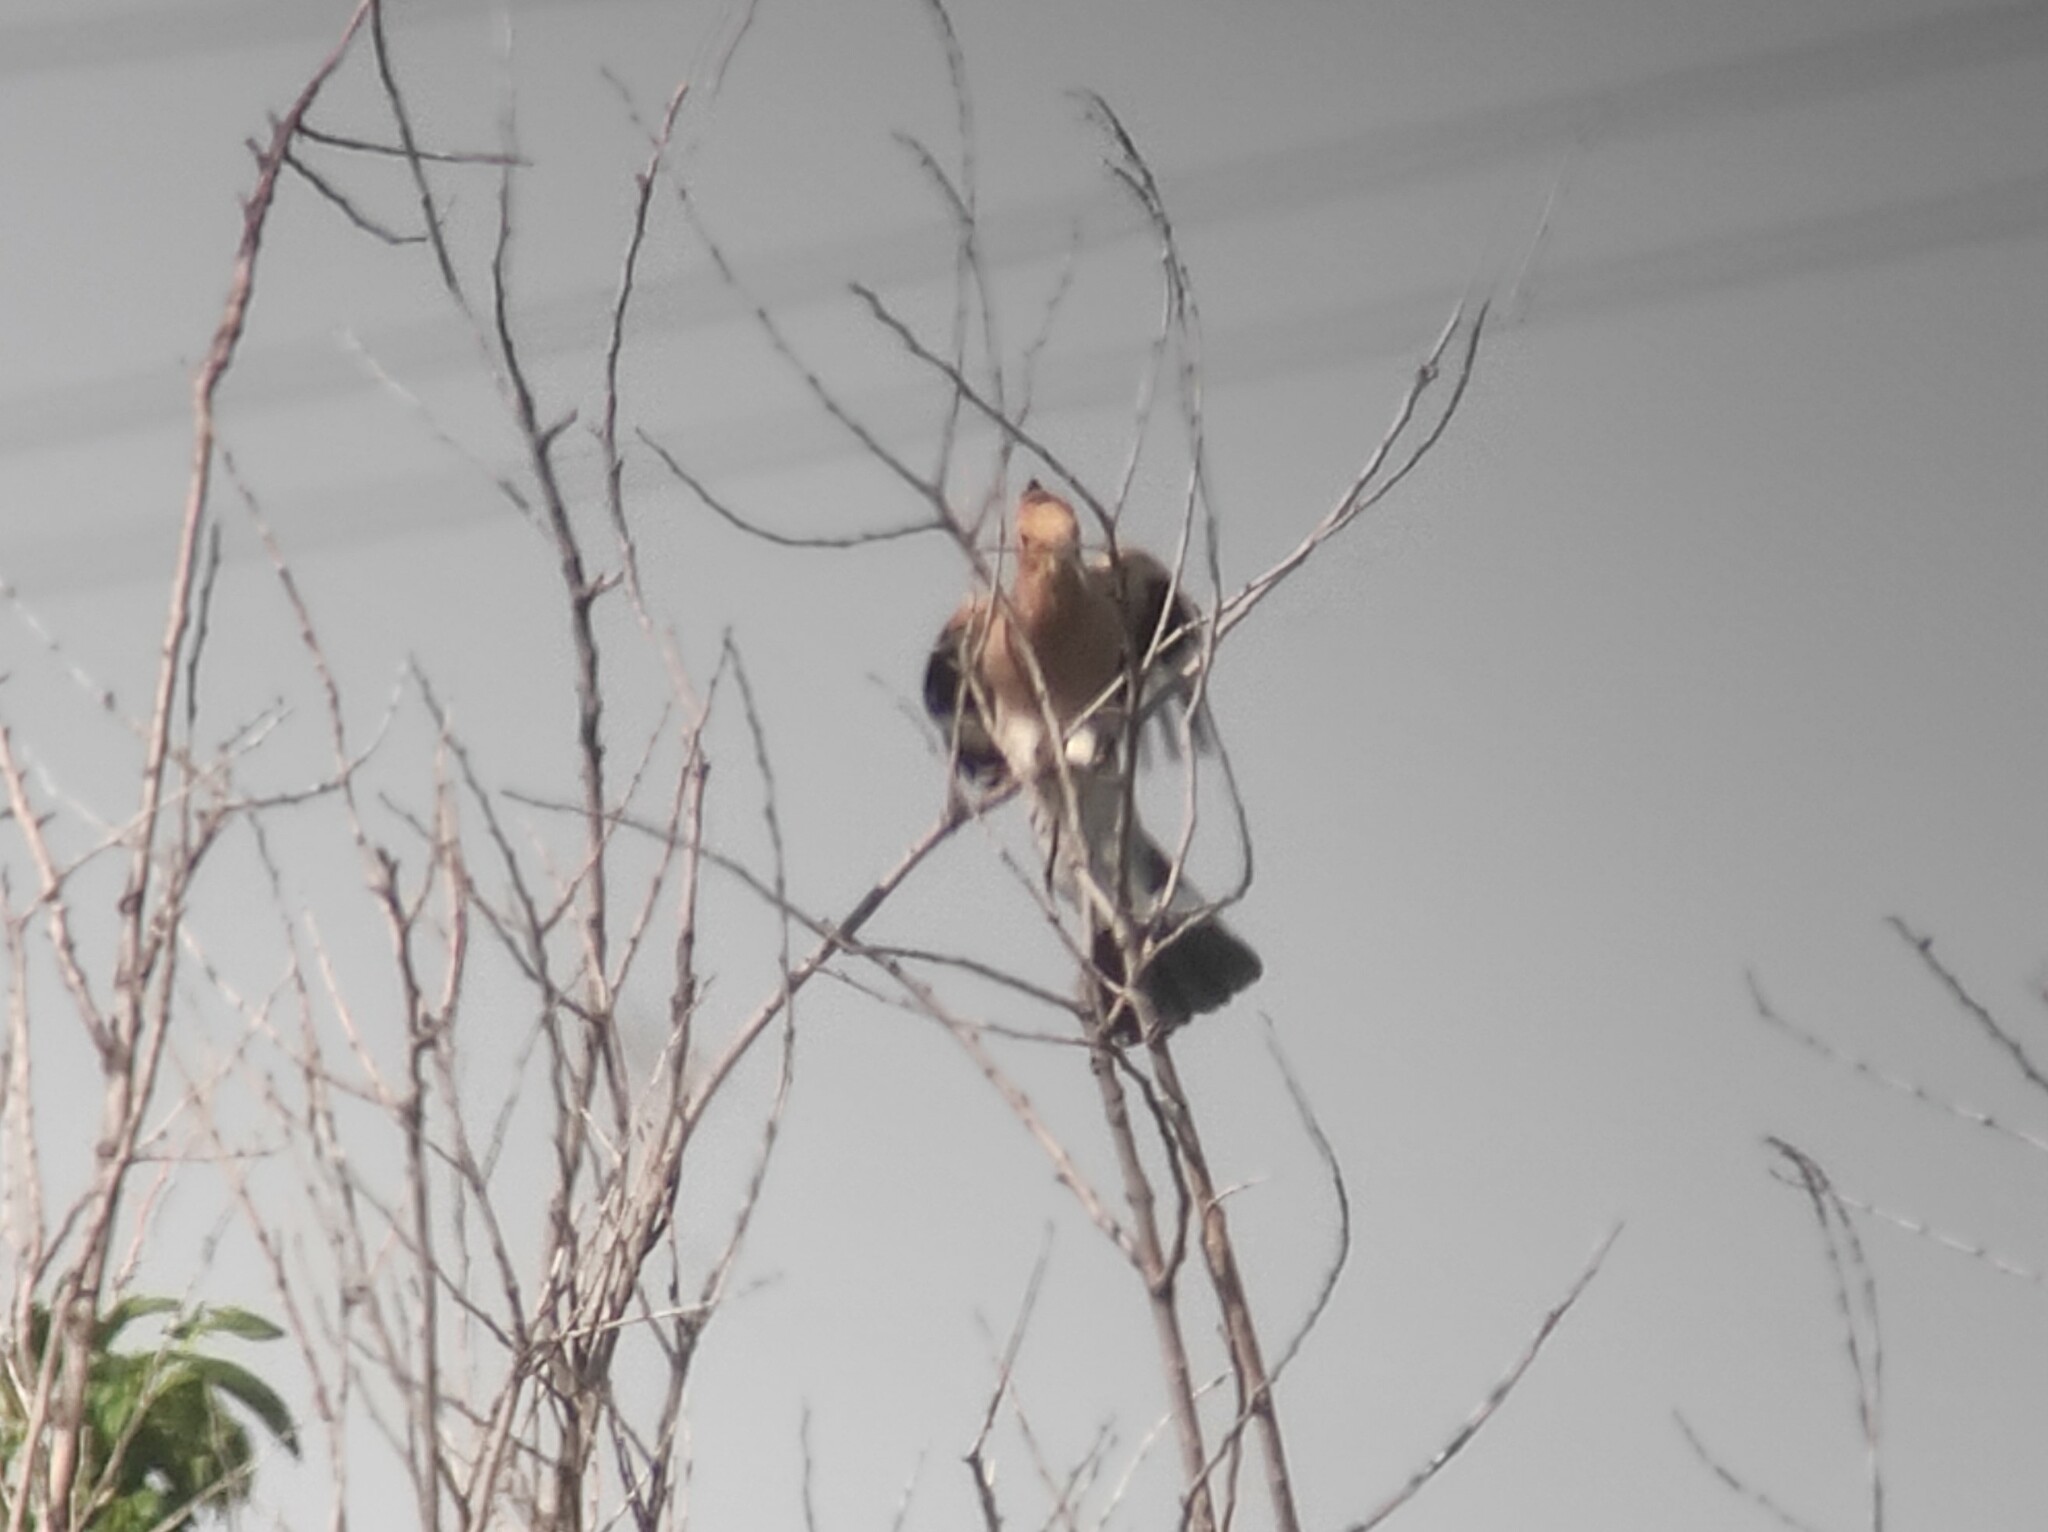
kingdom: Animalia
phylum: Chordata
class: Aves
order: Bucerotiformes
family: Upupidae
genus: Upupa
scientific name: Upupa epops
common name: Eurasian hoopoe
